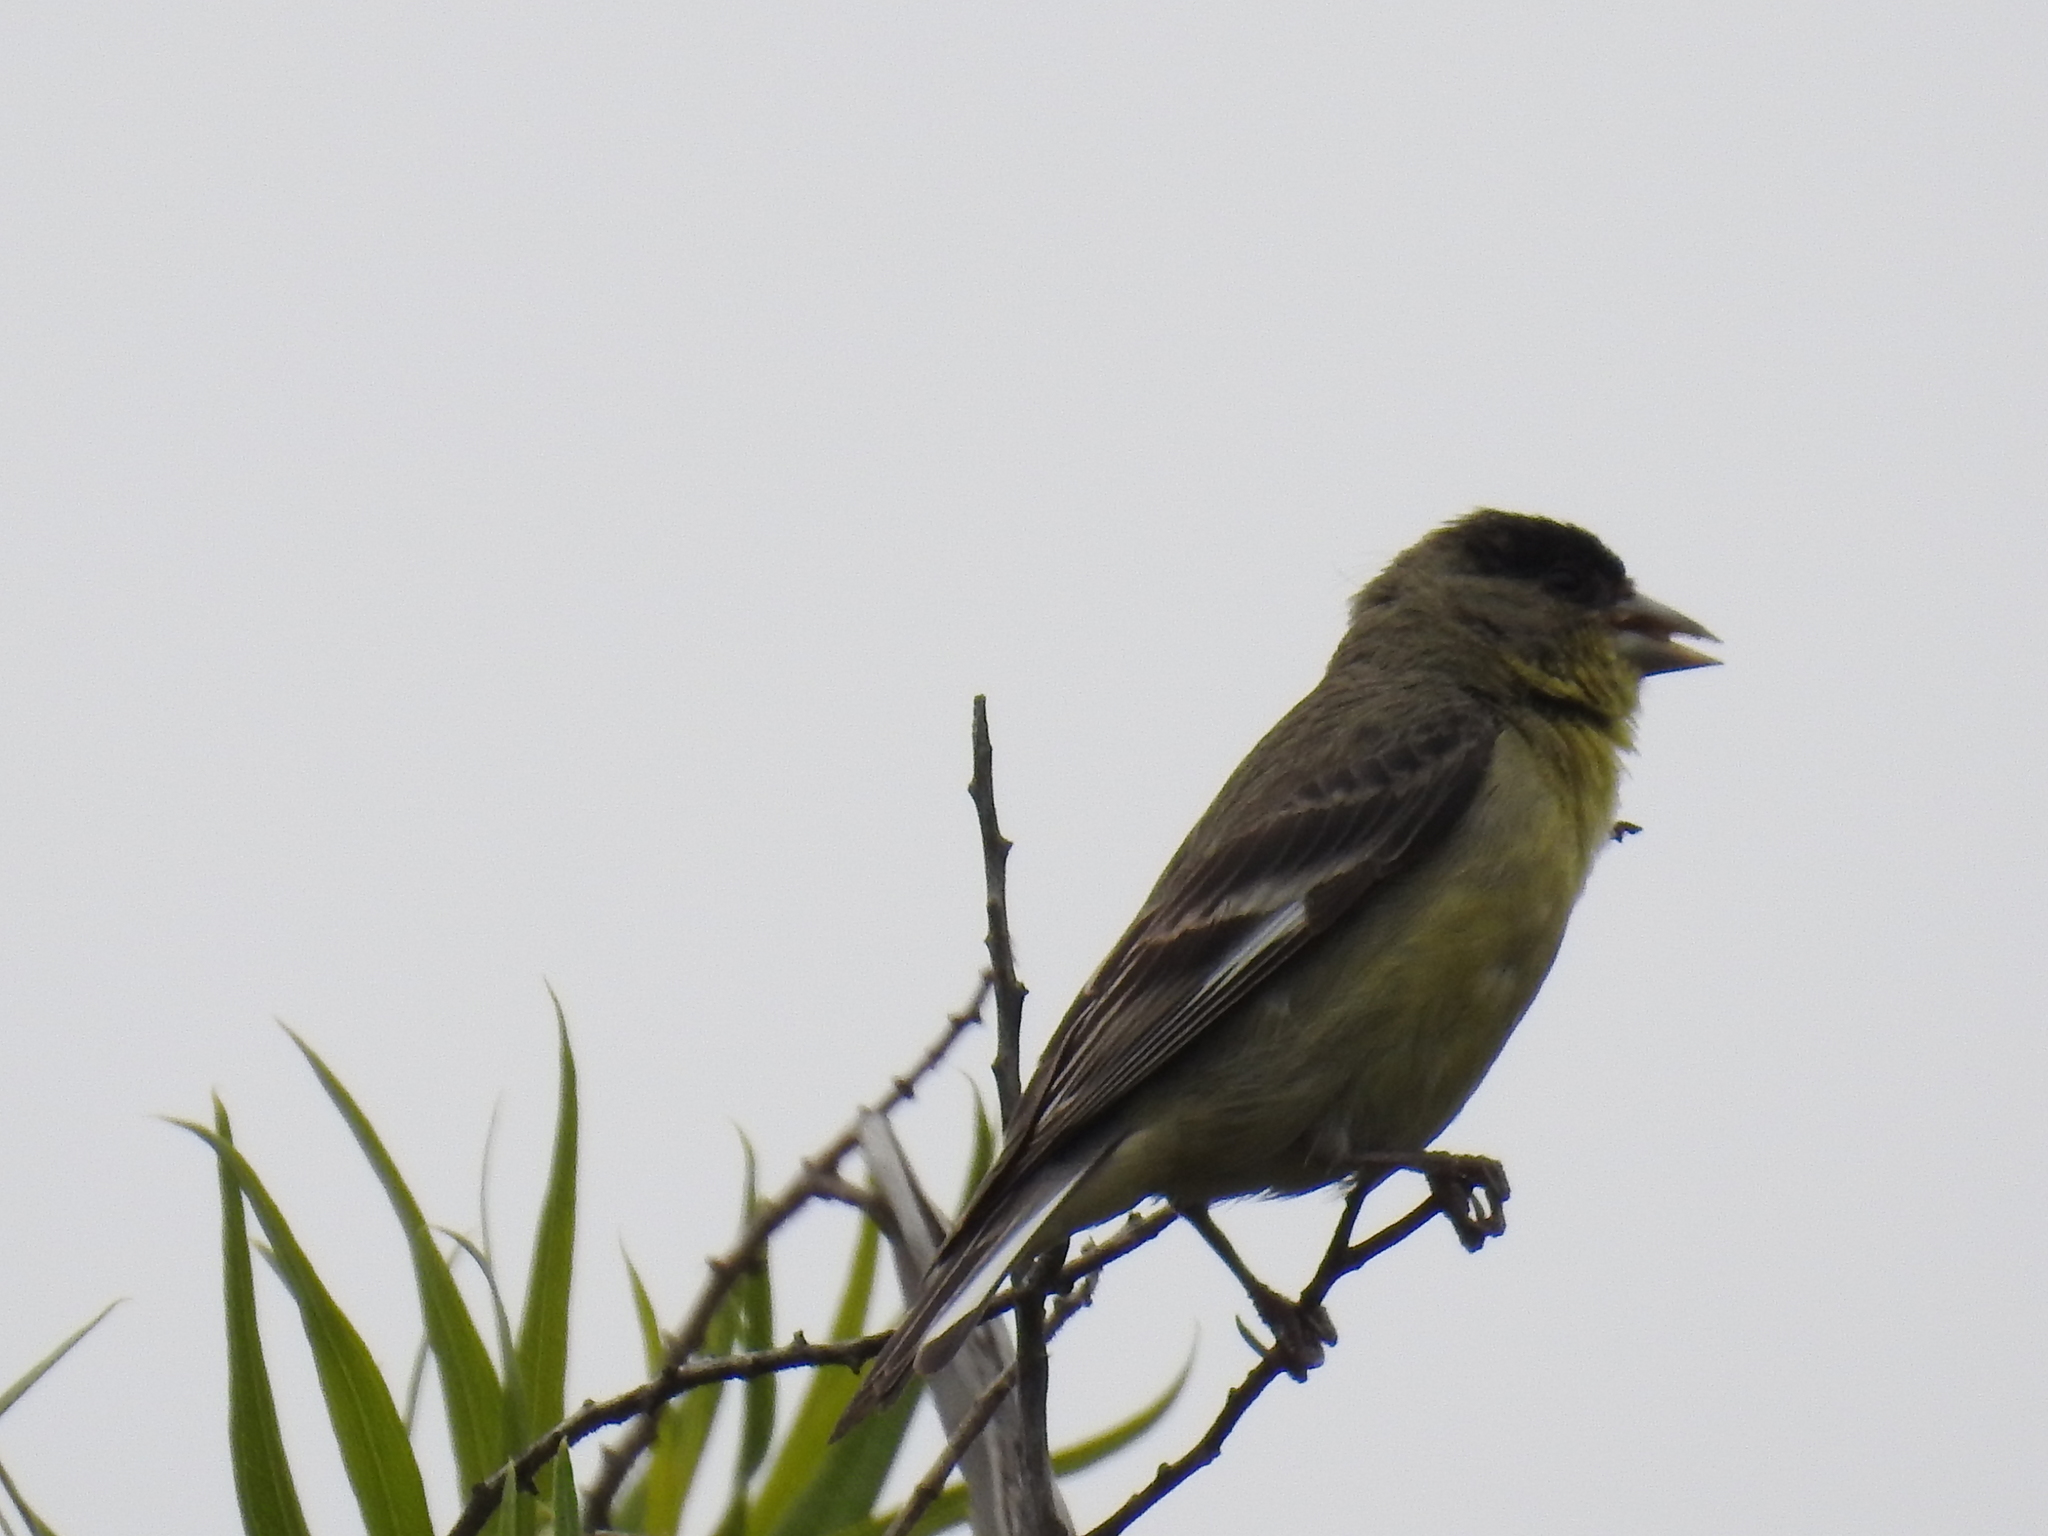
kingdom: Animalia
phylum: Chordata
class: Aves
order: Passeriformes
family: Fringillidae
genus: Spinus
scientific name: Spinus psaltria
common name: Lesser goldfinch
